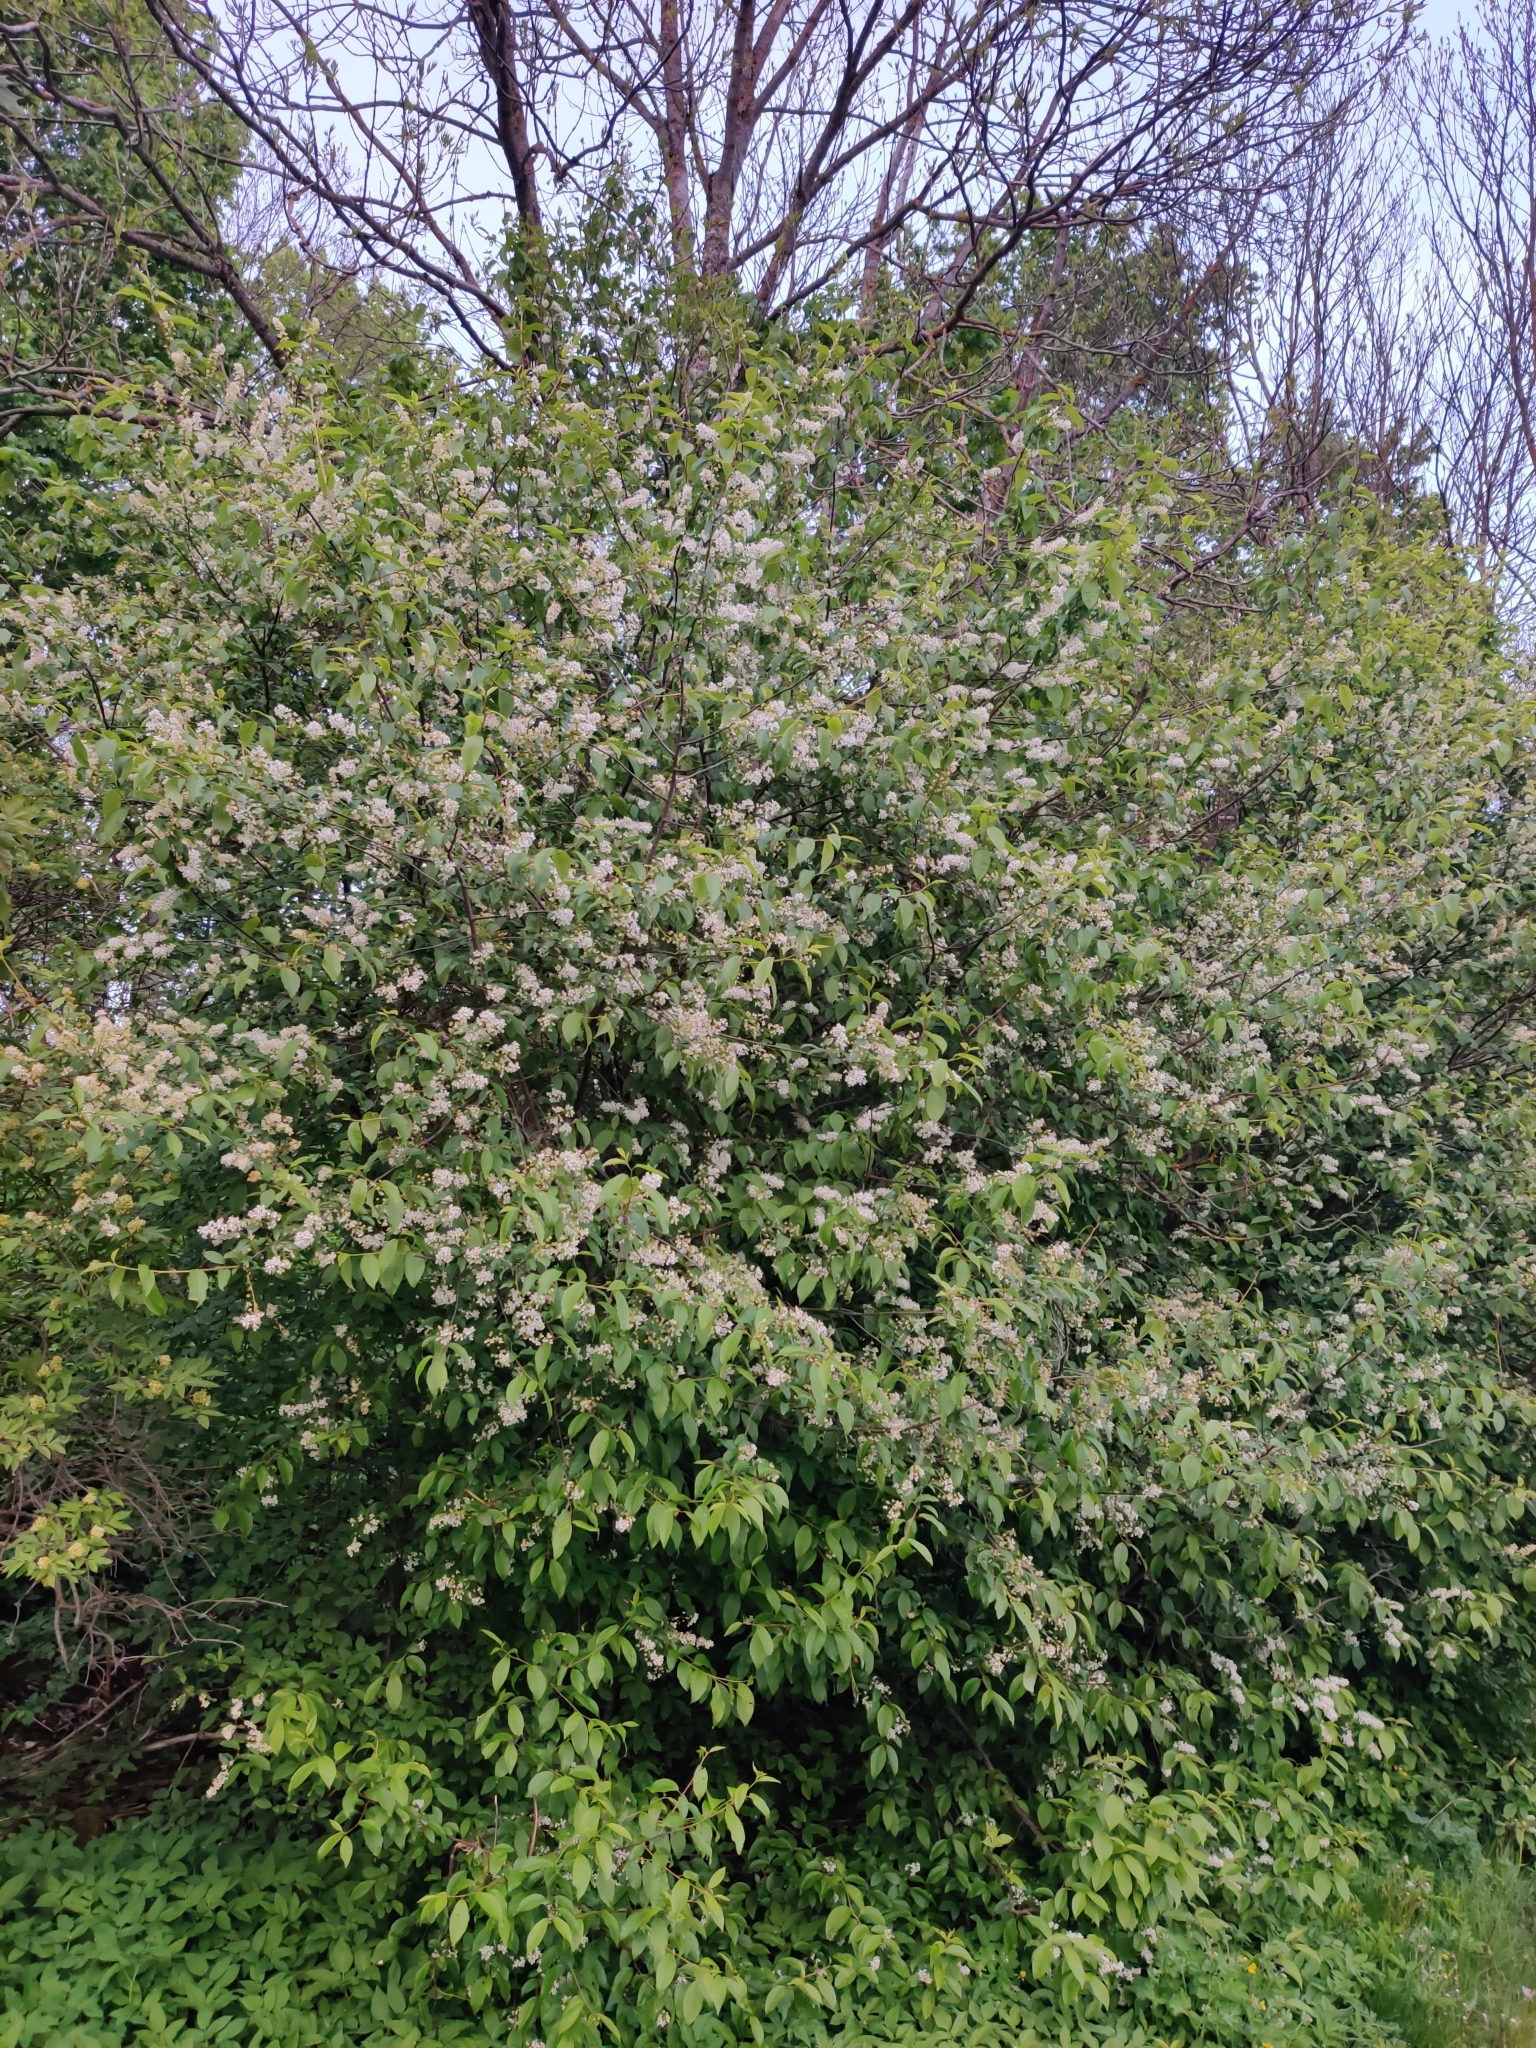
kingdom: Plantae
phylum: Tracheophyta
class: Magnoliopsida
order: Rosales
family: Rosaceae
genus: Prunus
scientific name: Prunus padus
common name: Bird cherry
